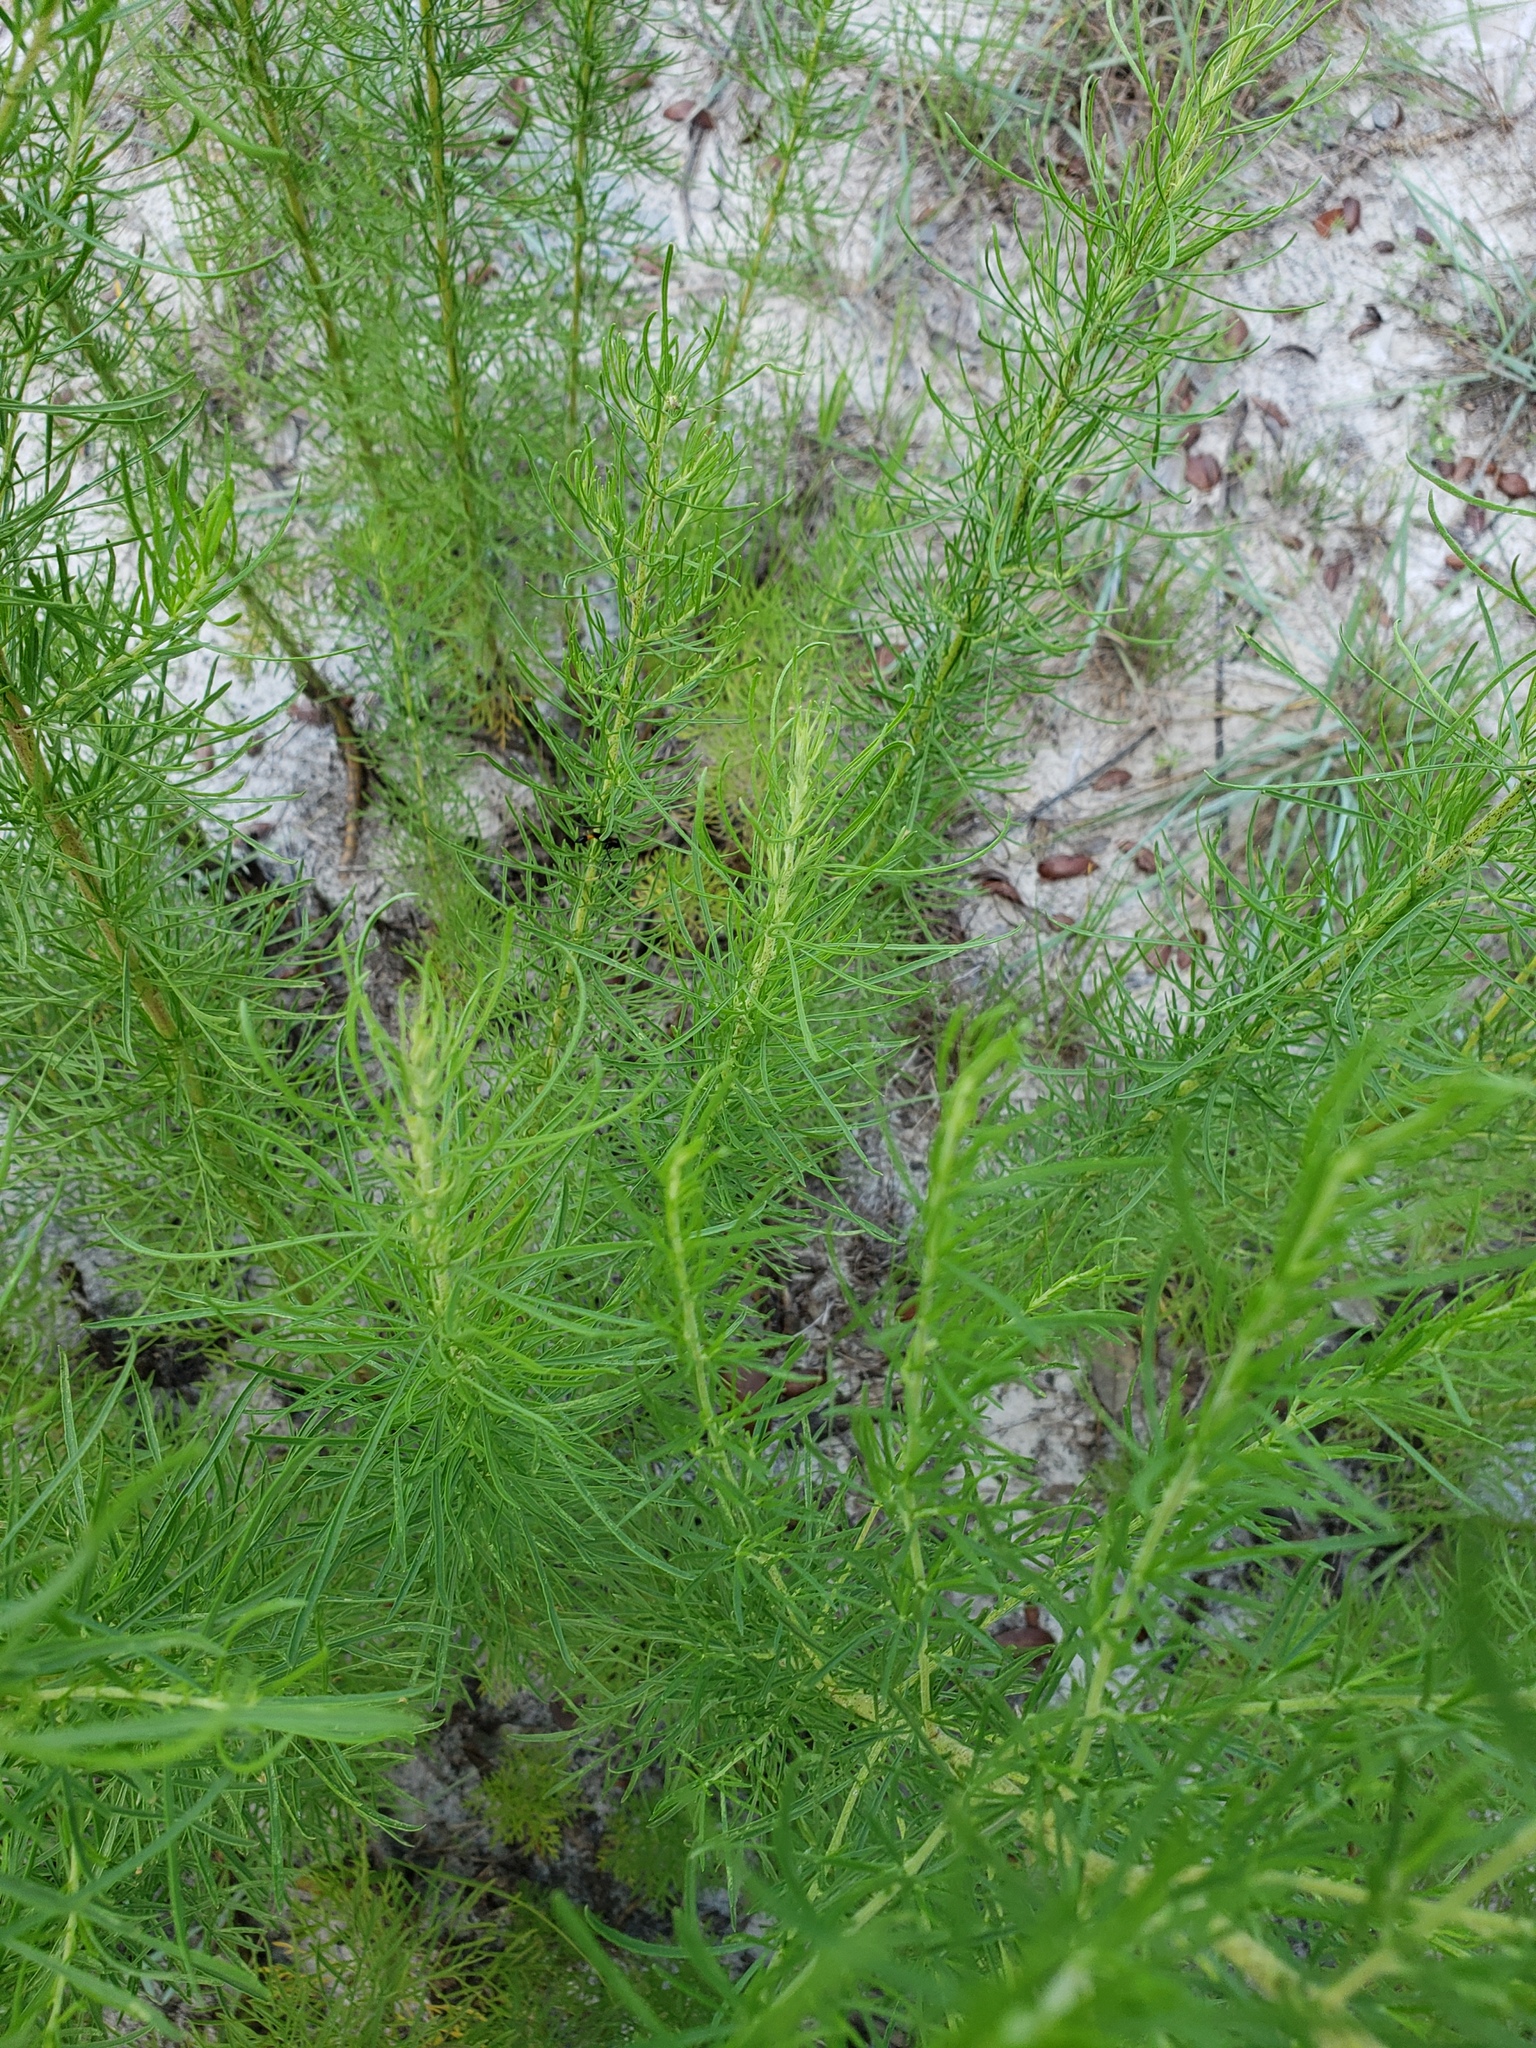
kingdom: Plantae
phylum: Tracheophyta
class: Magnoliopsida
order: Asterales
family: Asteraceae
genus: Eupatorium
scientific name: Eupatorium capillifolium
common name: Dog-fennel
